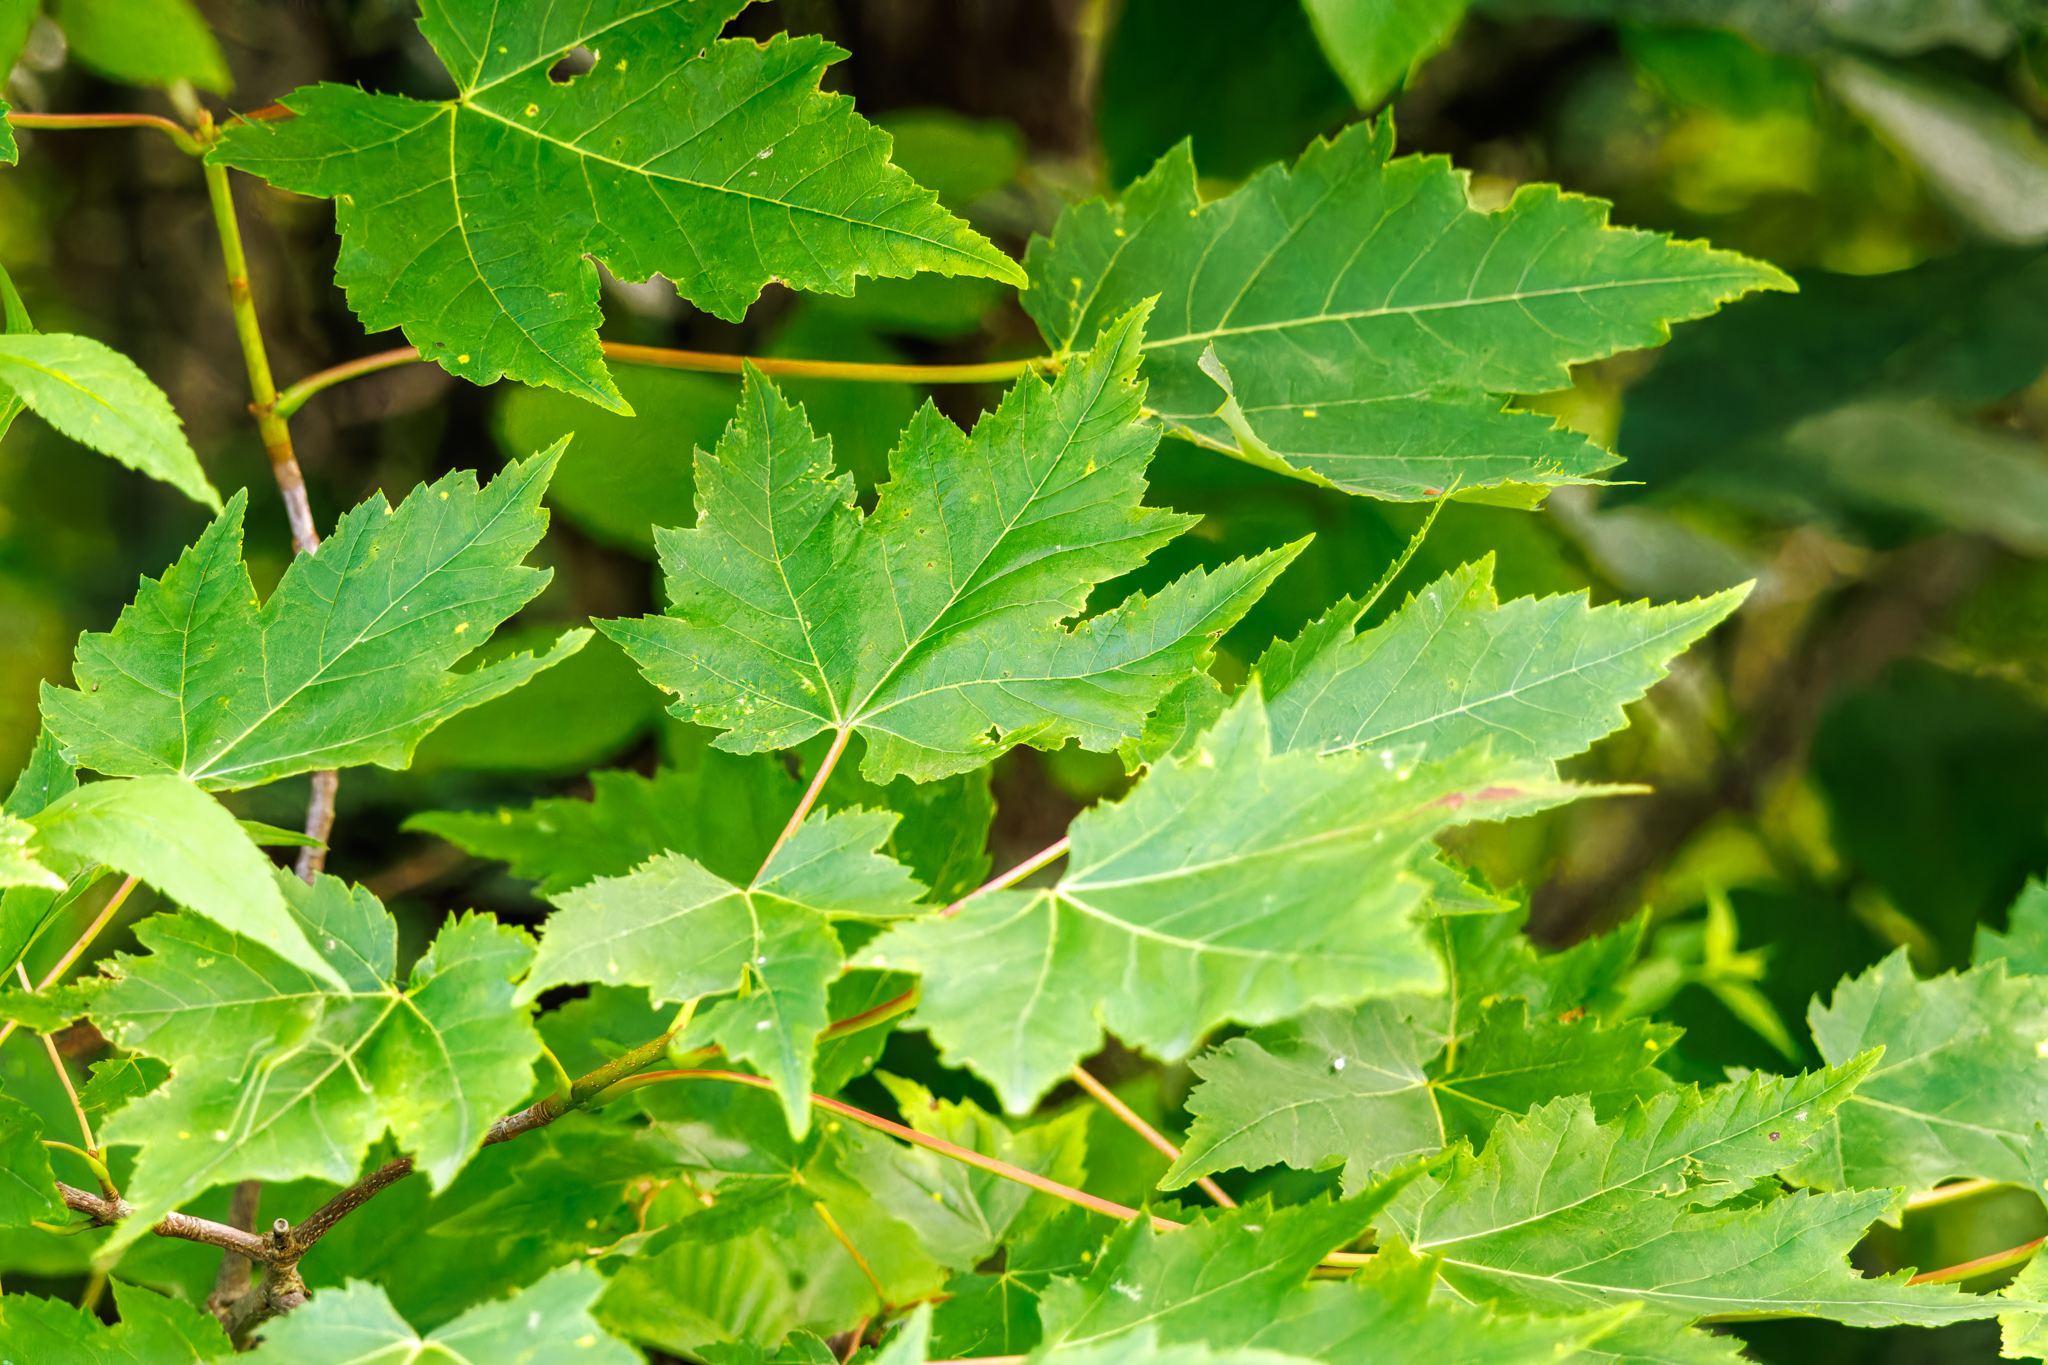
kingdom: Plantae
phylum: Tracheophyta
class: Magnoliopsida
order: Sapindales
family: Sapindaceae
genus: Acer
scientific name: Acer rubrum
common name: Red maple
